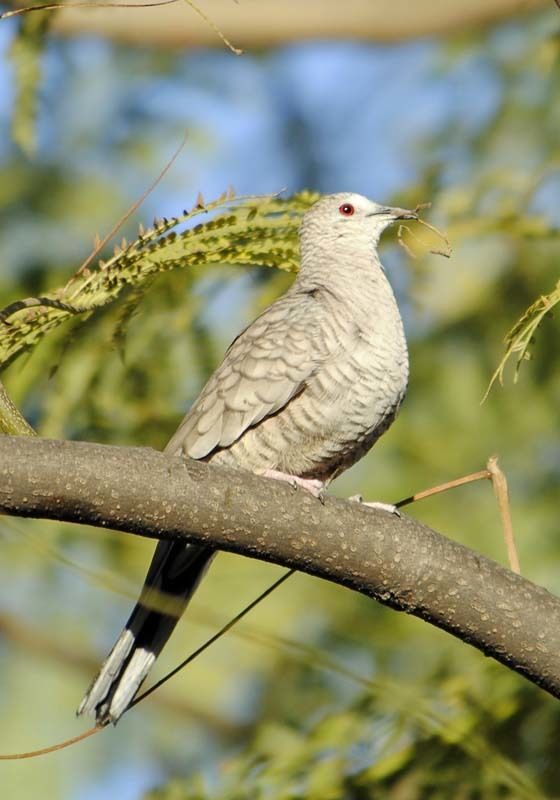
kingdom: Animalia
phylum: Chordata
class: Aves
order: Columbiformes
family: Columbidae
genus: Columbina
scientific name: Columbina inca
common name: Inca dove
